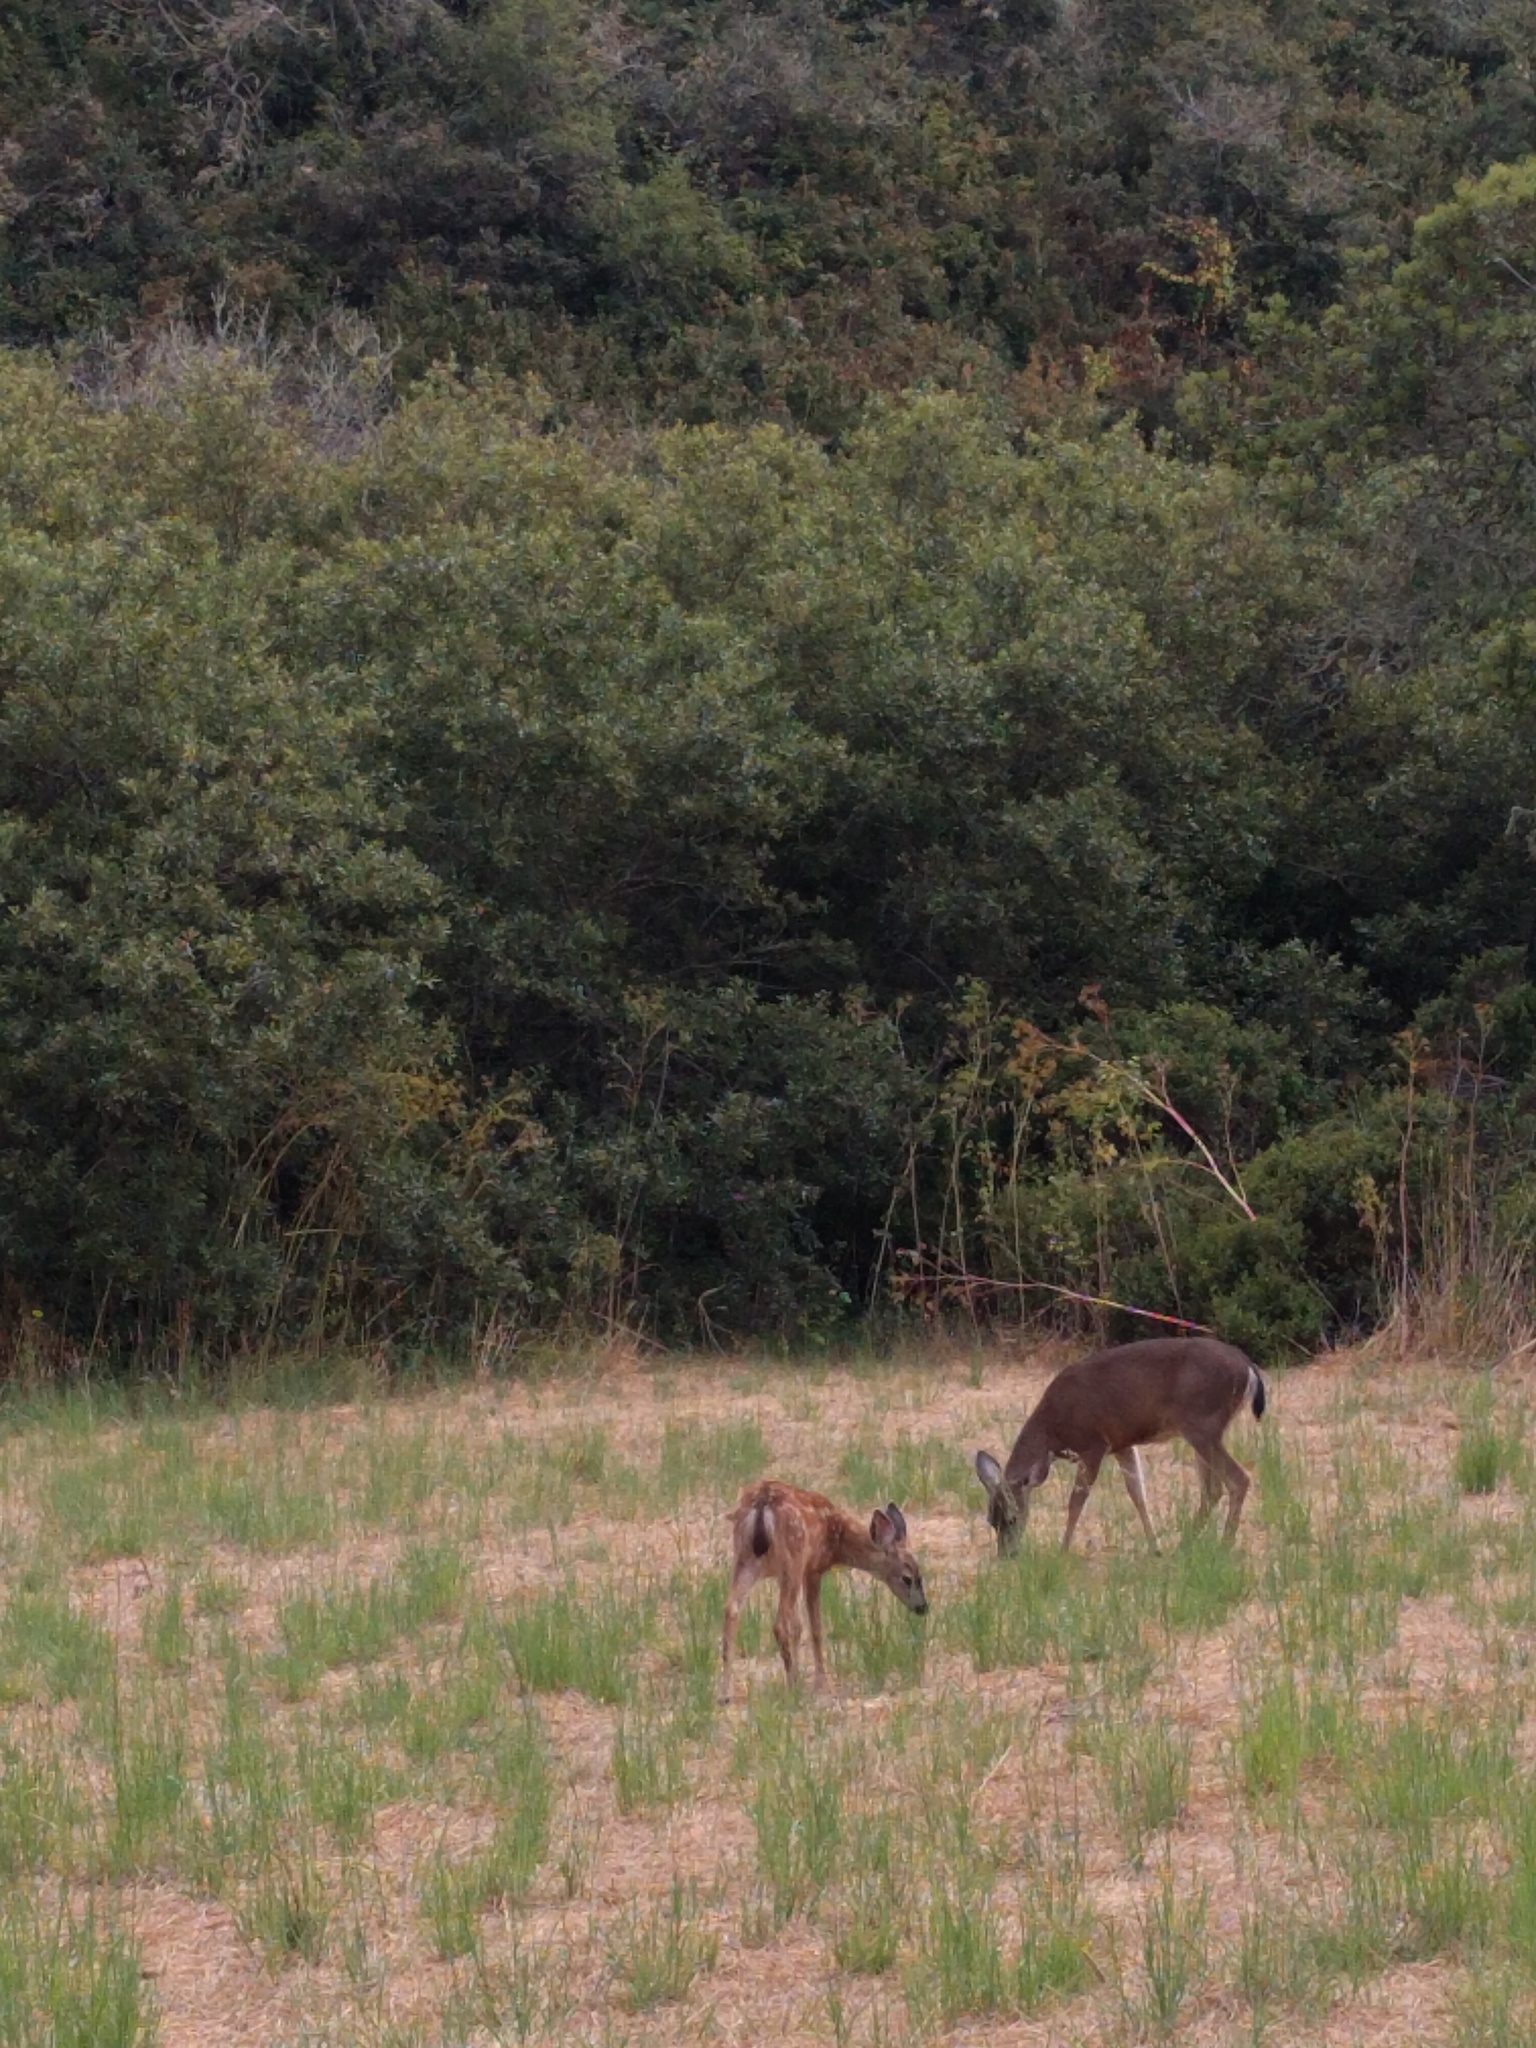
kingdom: Animalia
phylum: Chordata
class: Mammalia
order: Artiodactyla
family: Cervidae
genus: Odocoileus
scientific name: Odocoileus hemionus
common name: Mule deer
